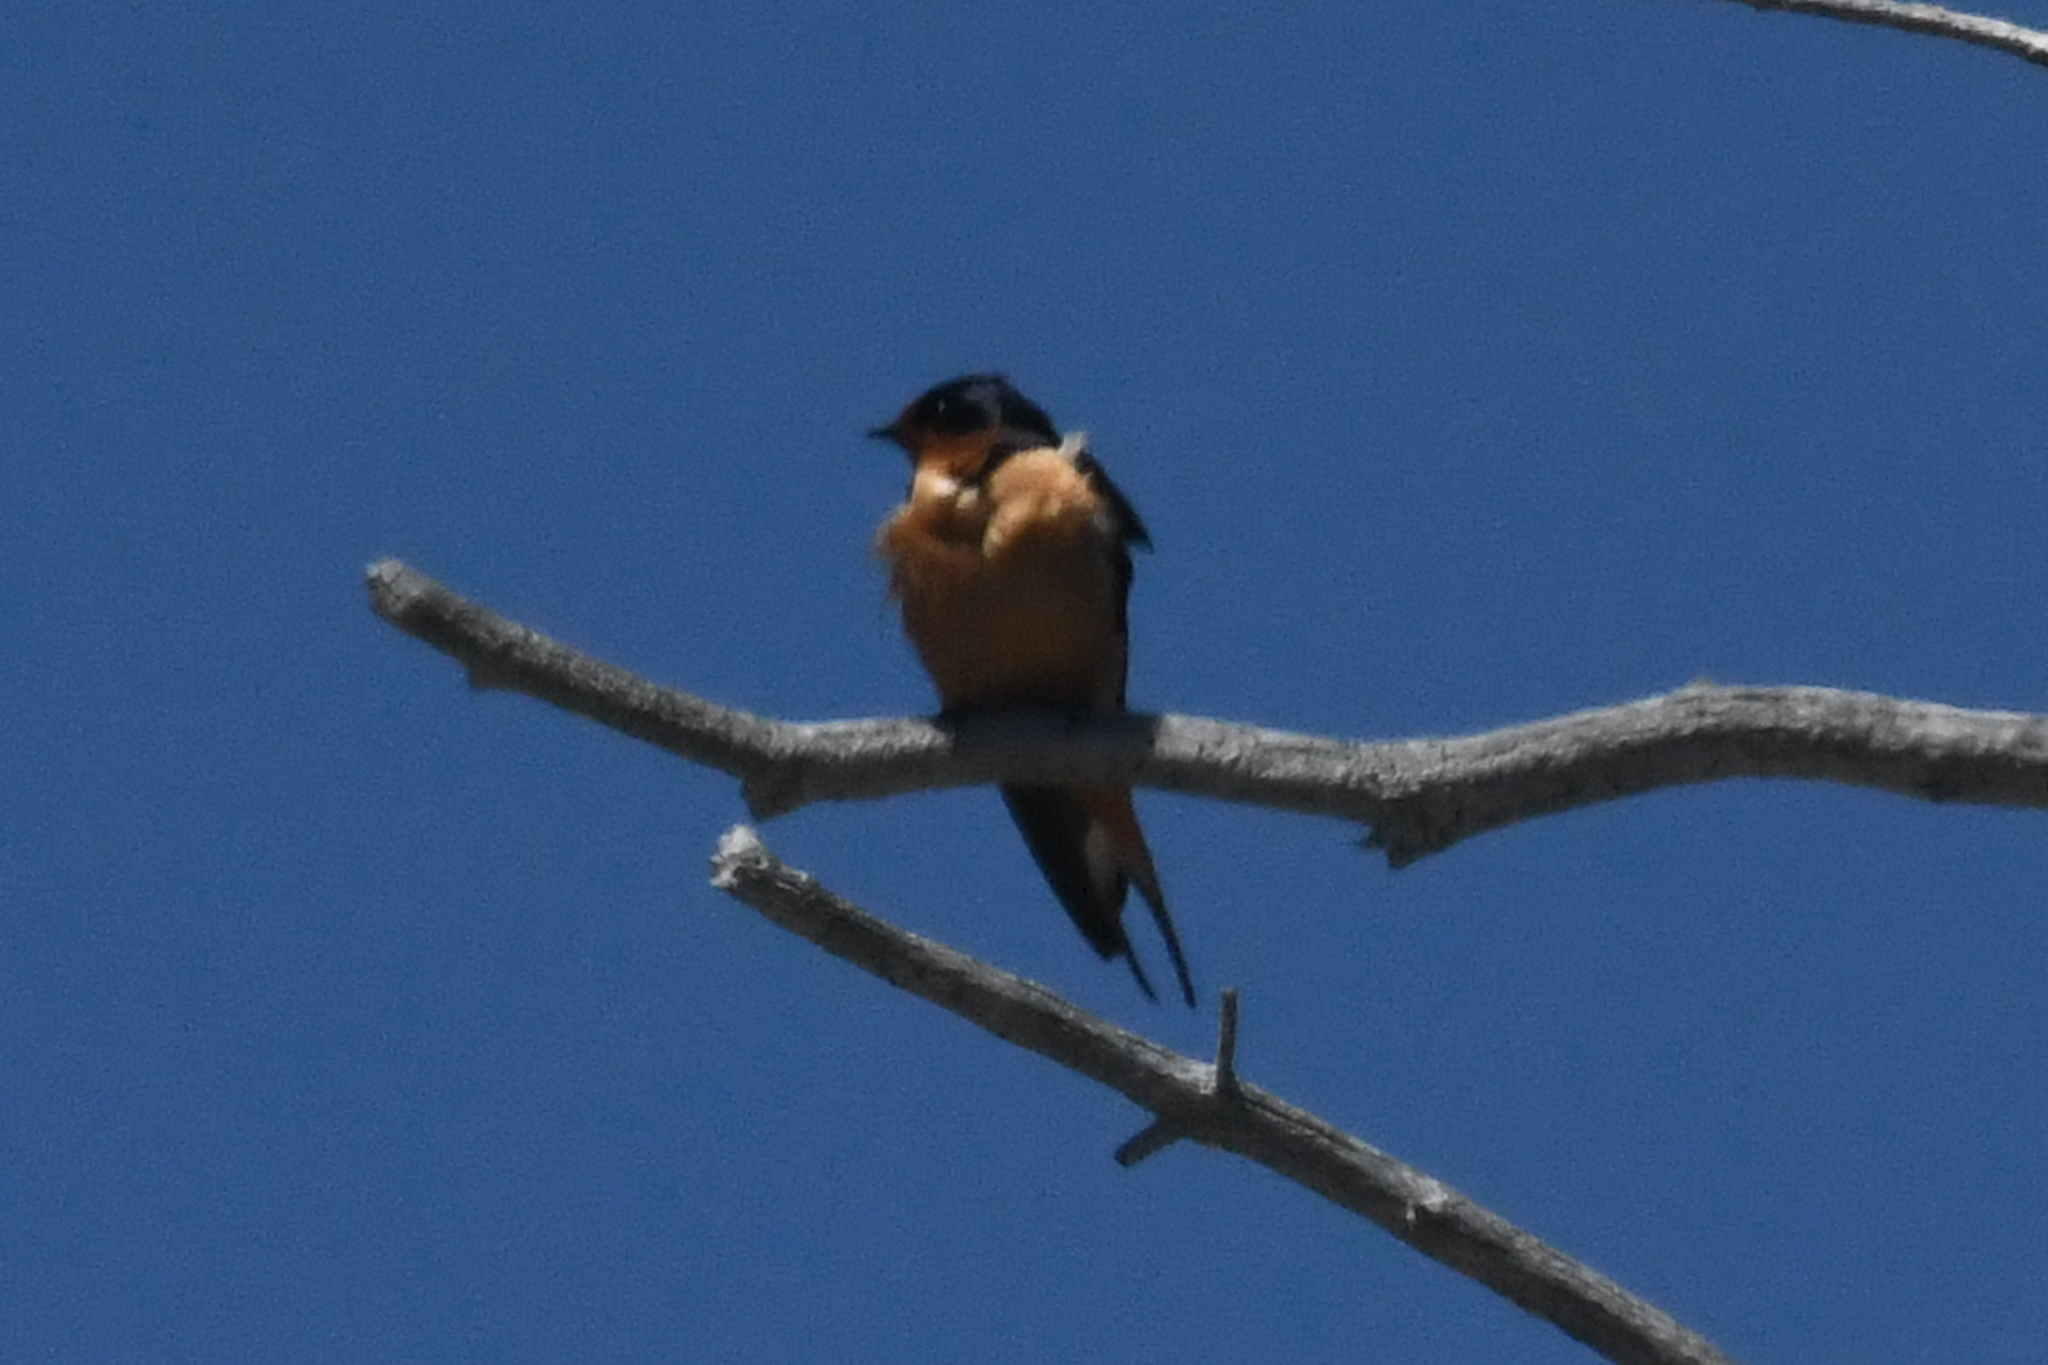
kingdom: Animalia
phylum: Chordata
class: Aves
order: Passeriformes
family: Hirundinidae
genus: Hirundo
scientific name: Hirundo rustica
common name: Barn swallow
